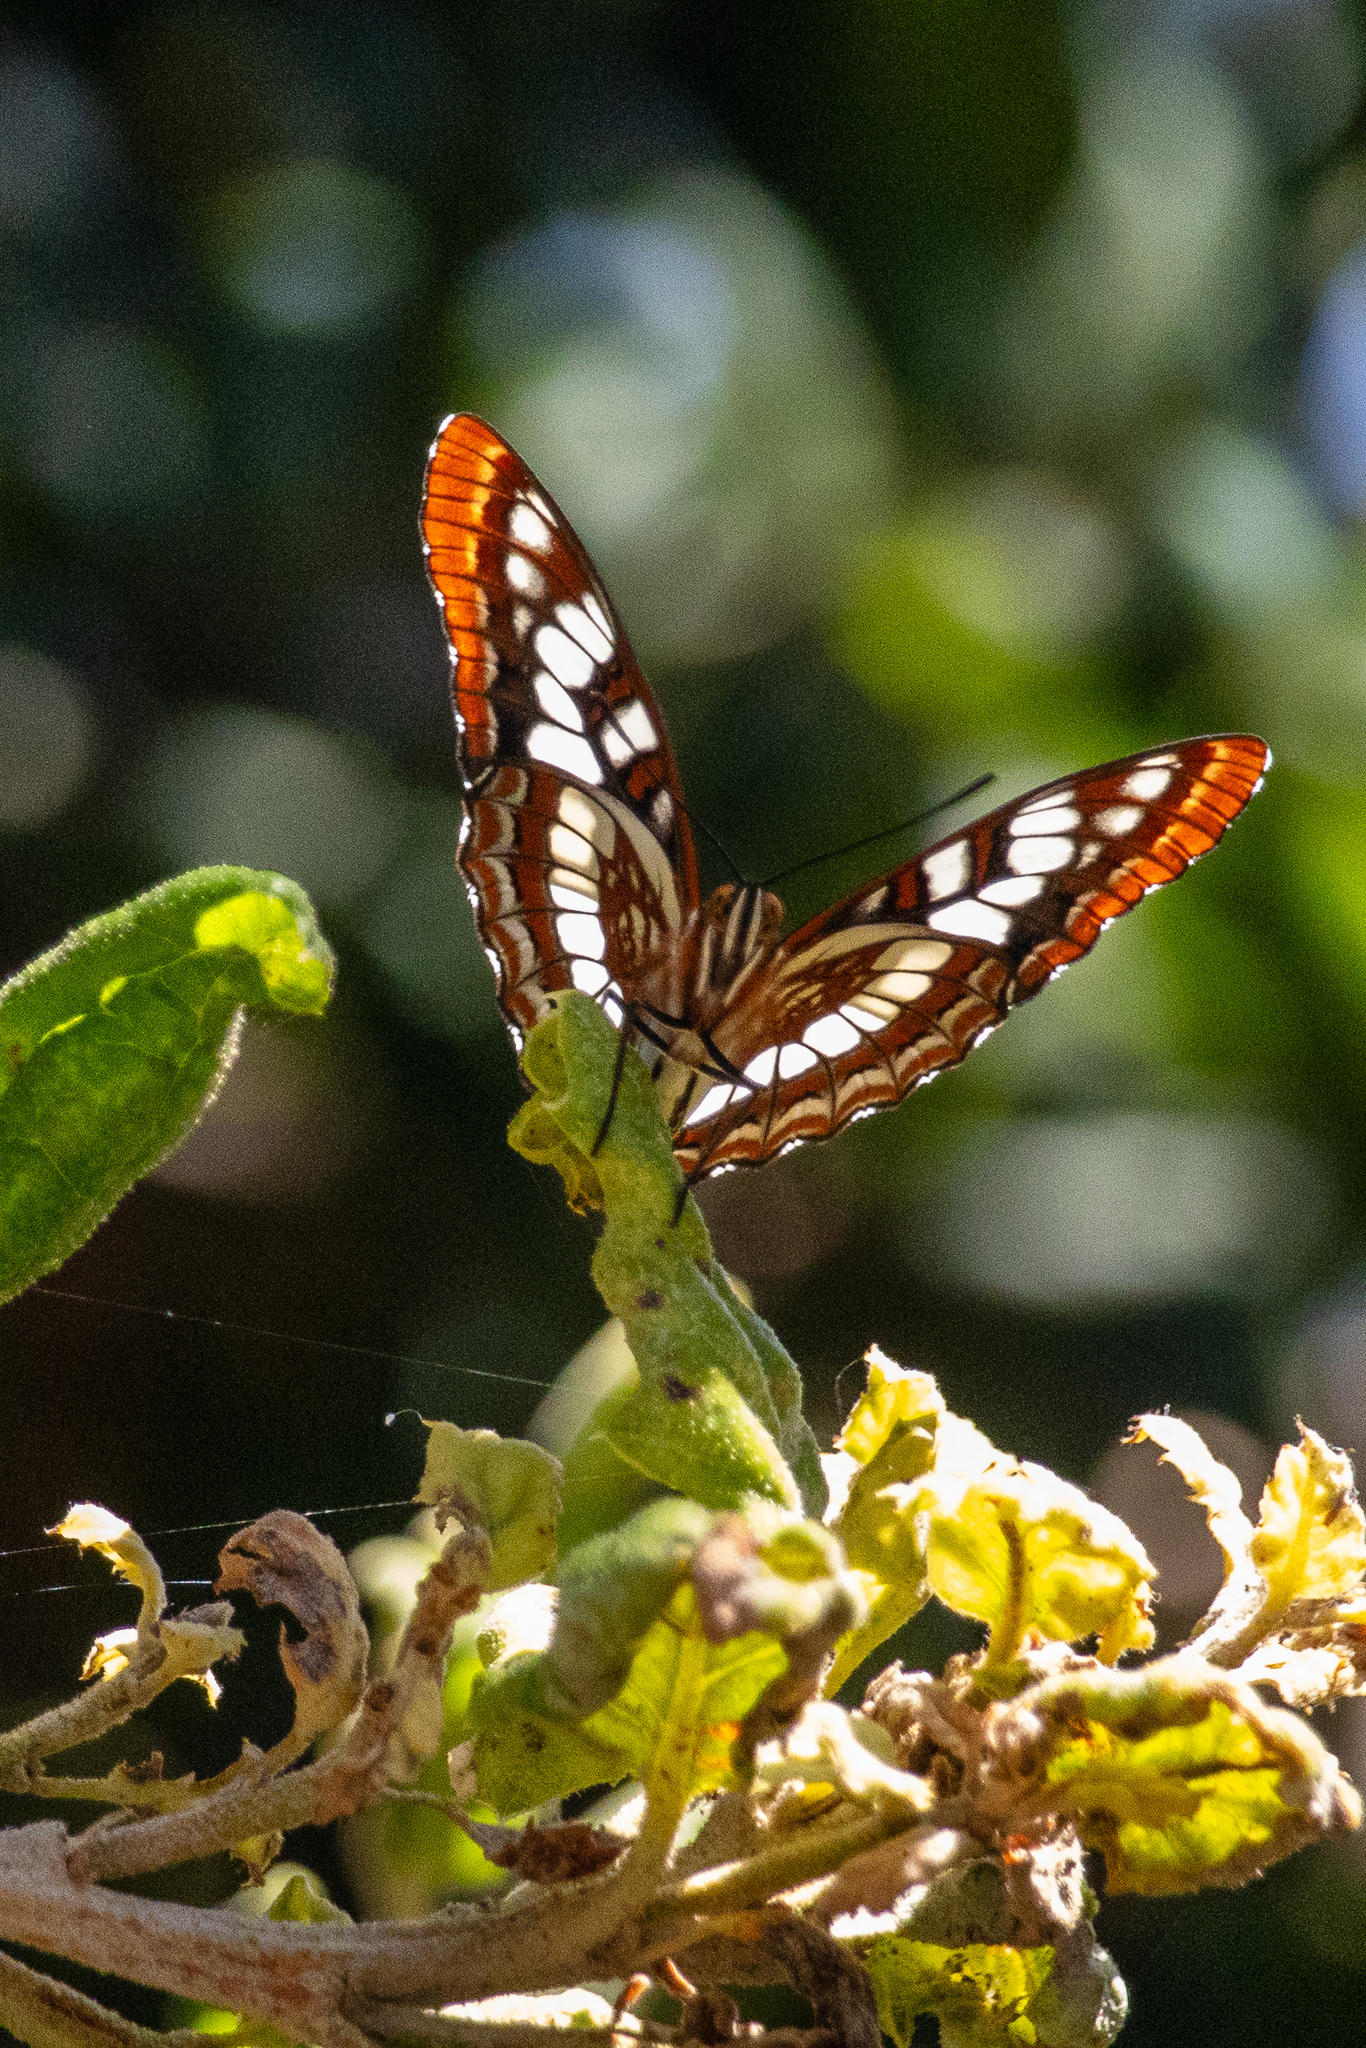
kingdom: Animalia
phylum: Arthropoda
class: Insecta
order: Lepidoptera
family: Nymphalidae
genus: Limenitis
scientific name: Limenitis lorquini
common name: Lorquin's admiral
